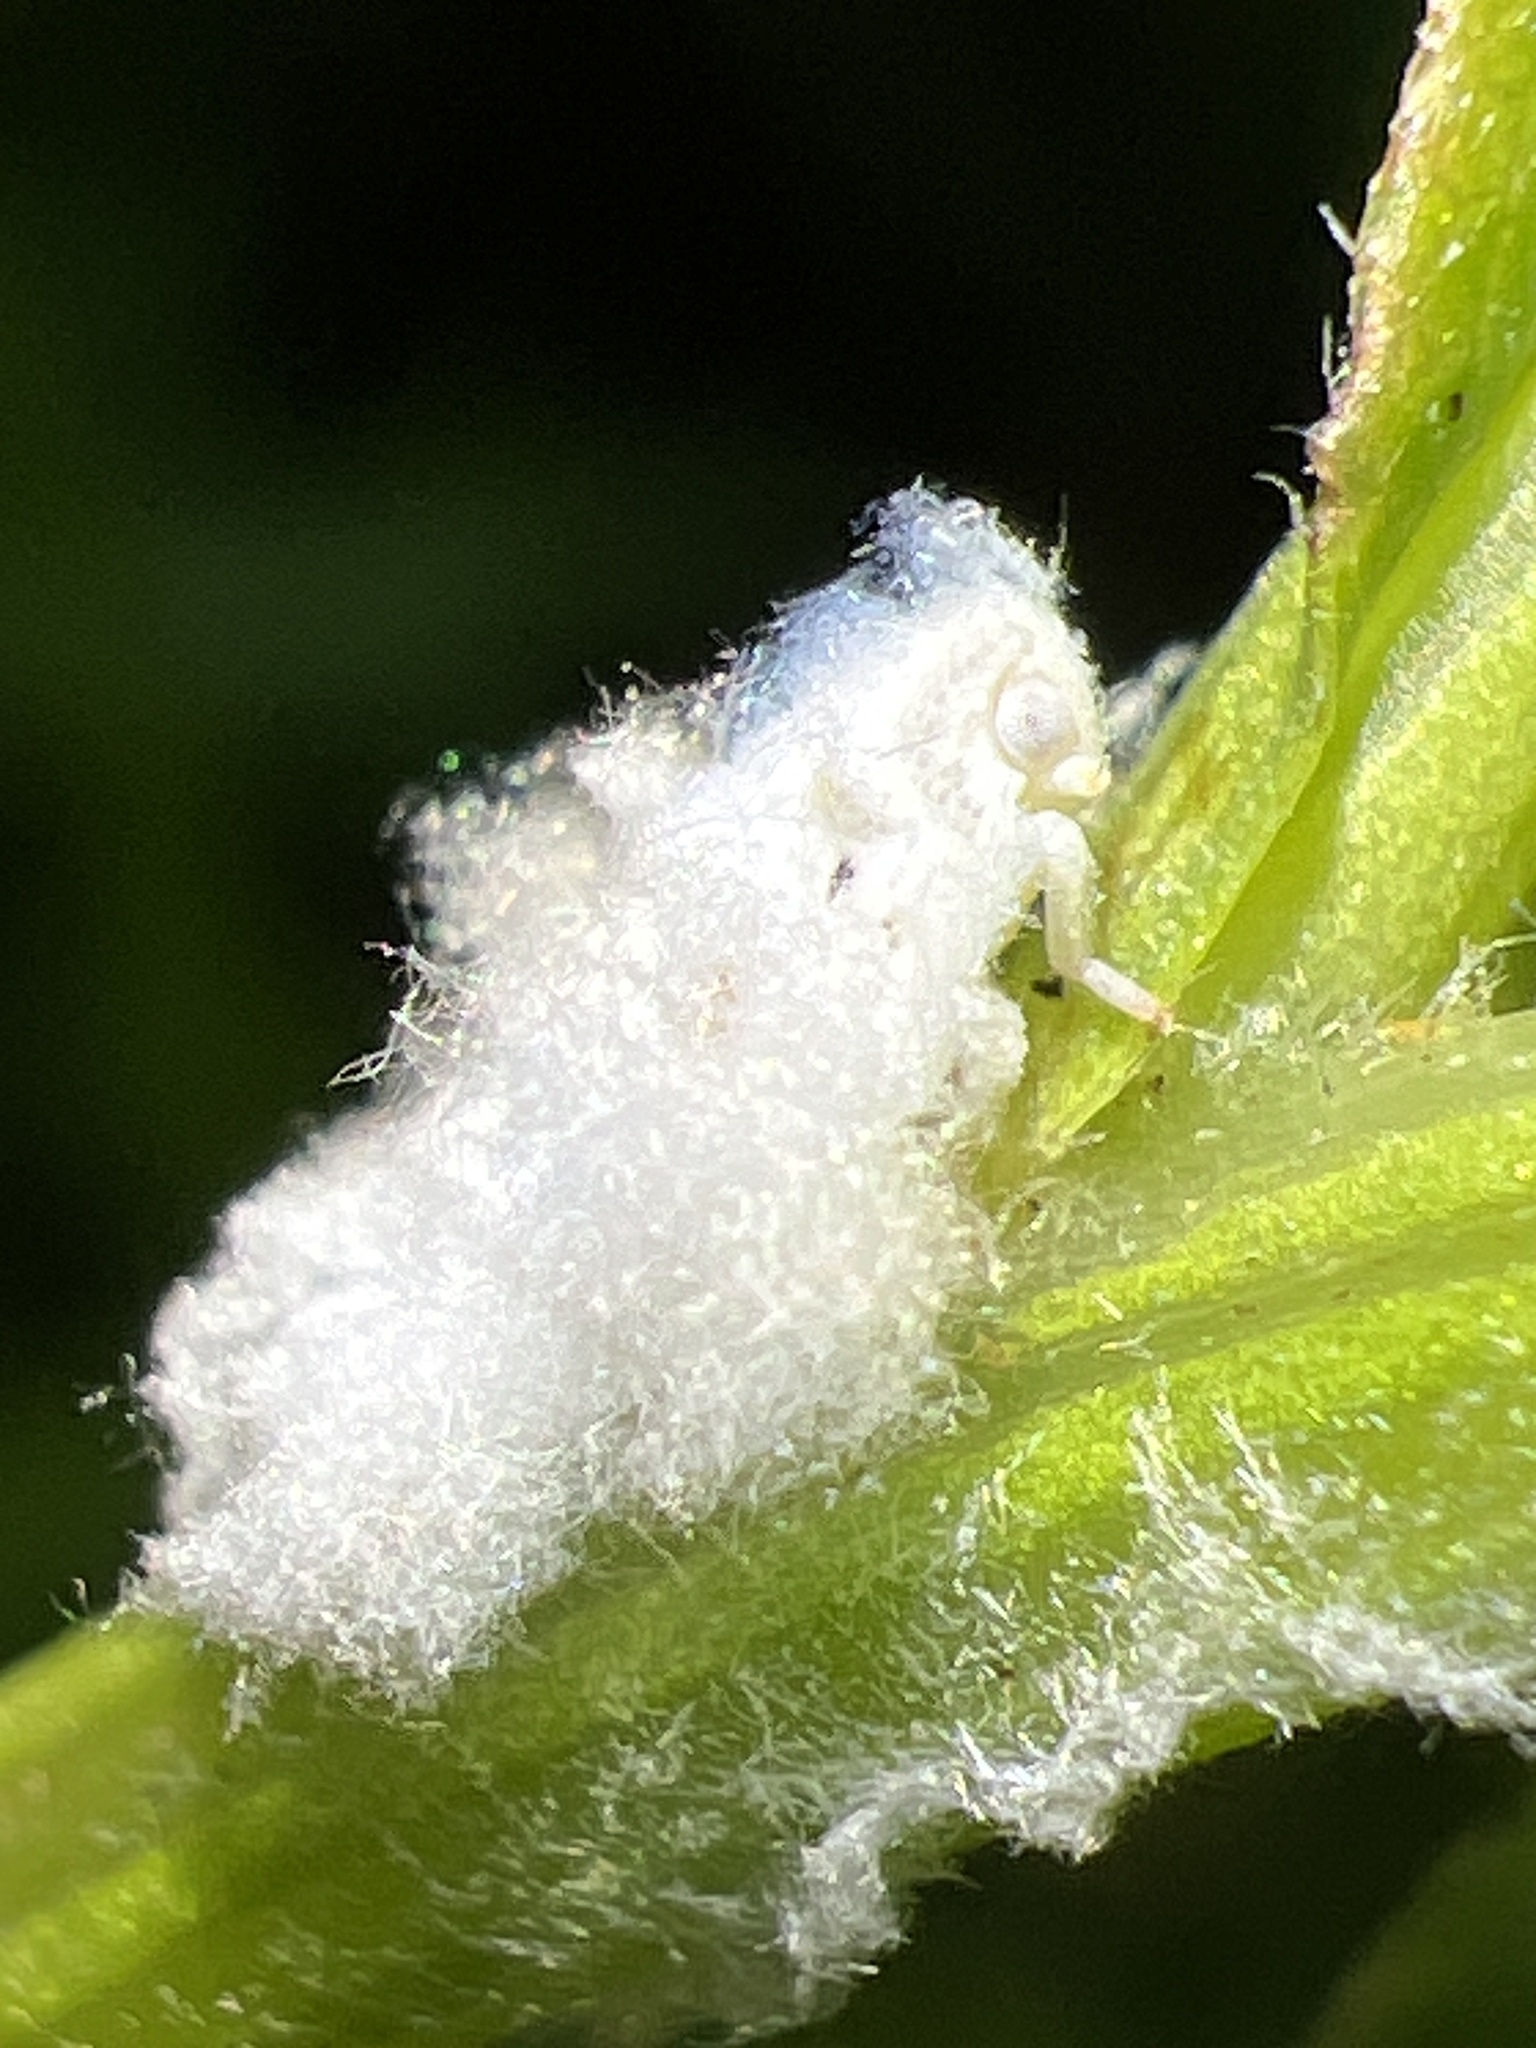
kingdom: Animalia
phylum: Arthropoda
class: Insecta
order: Hemiptera
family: Flatidae
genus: Flatormenis
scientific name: Flatormenis proxima
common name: Northern flatid planthopper
